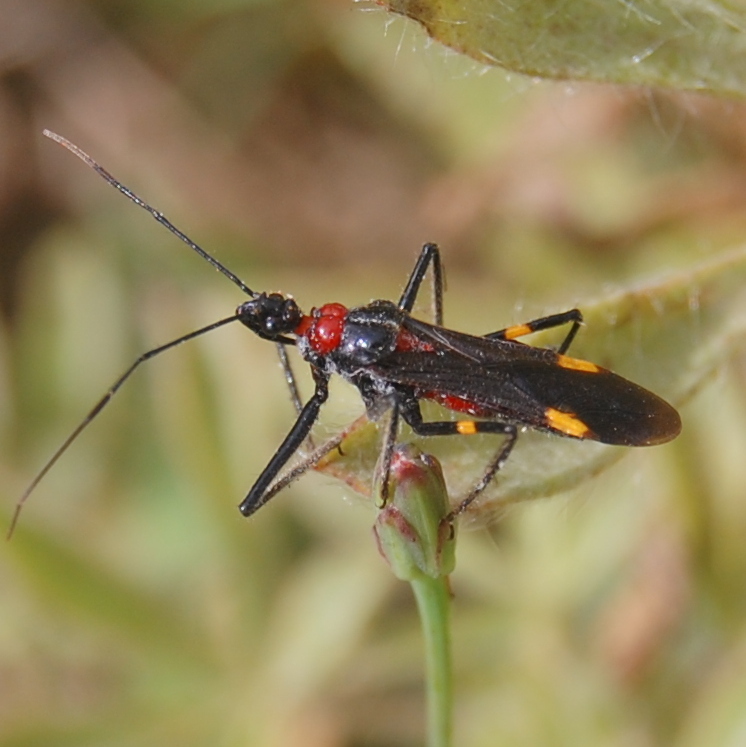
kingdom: Animalia
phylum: Arthropoda
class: Insecta
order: Hemiptera
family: Reduviidae
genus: Graptocleptes
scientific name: Graptocleptes bicolor
